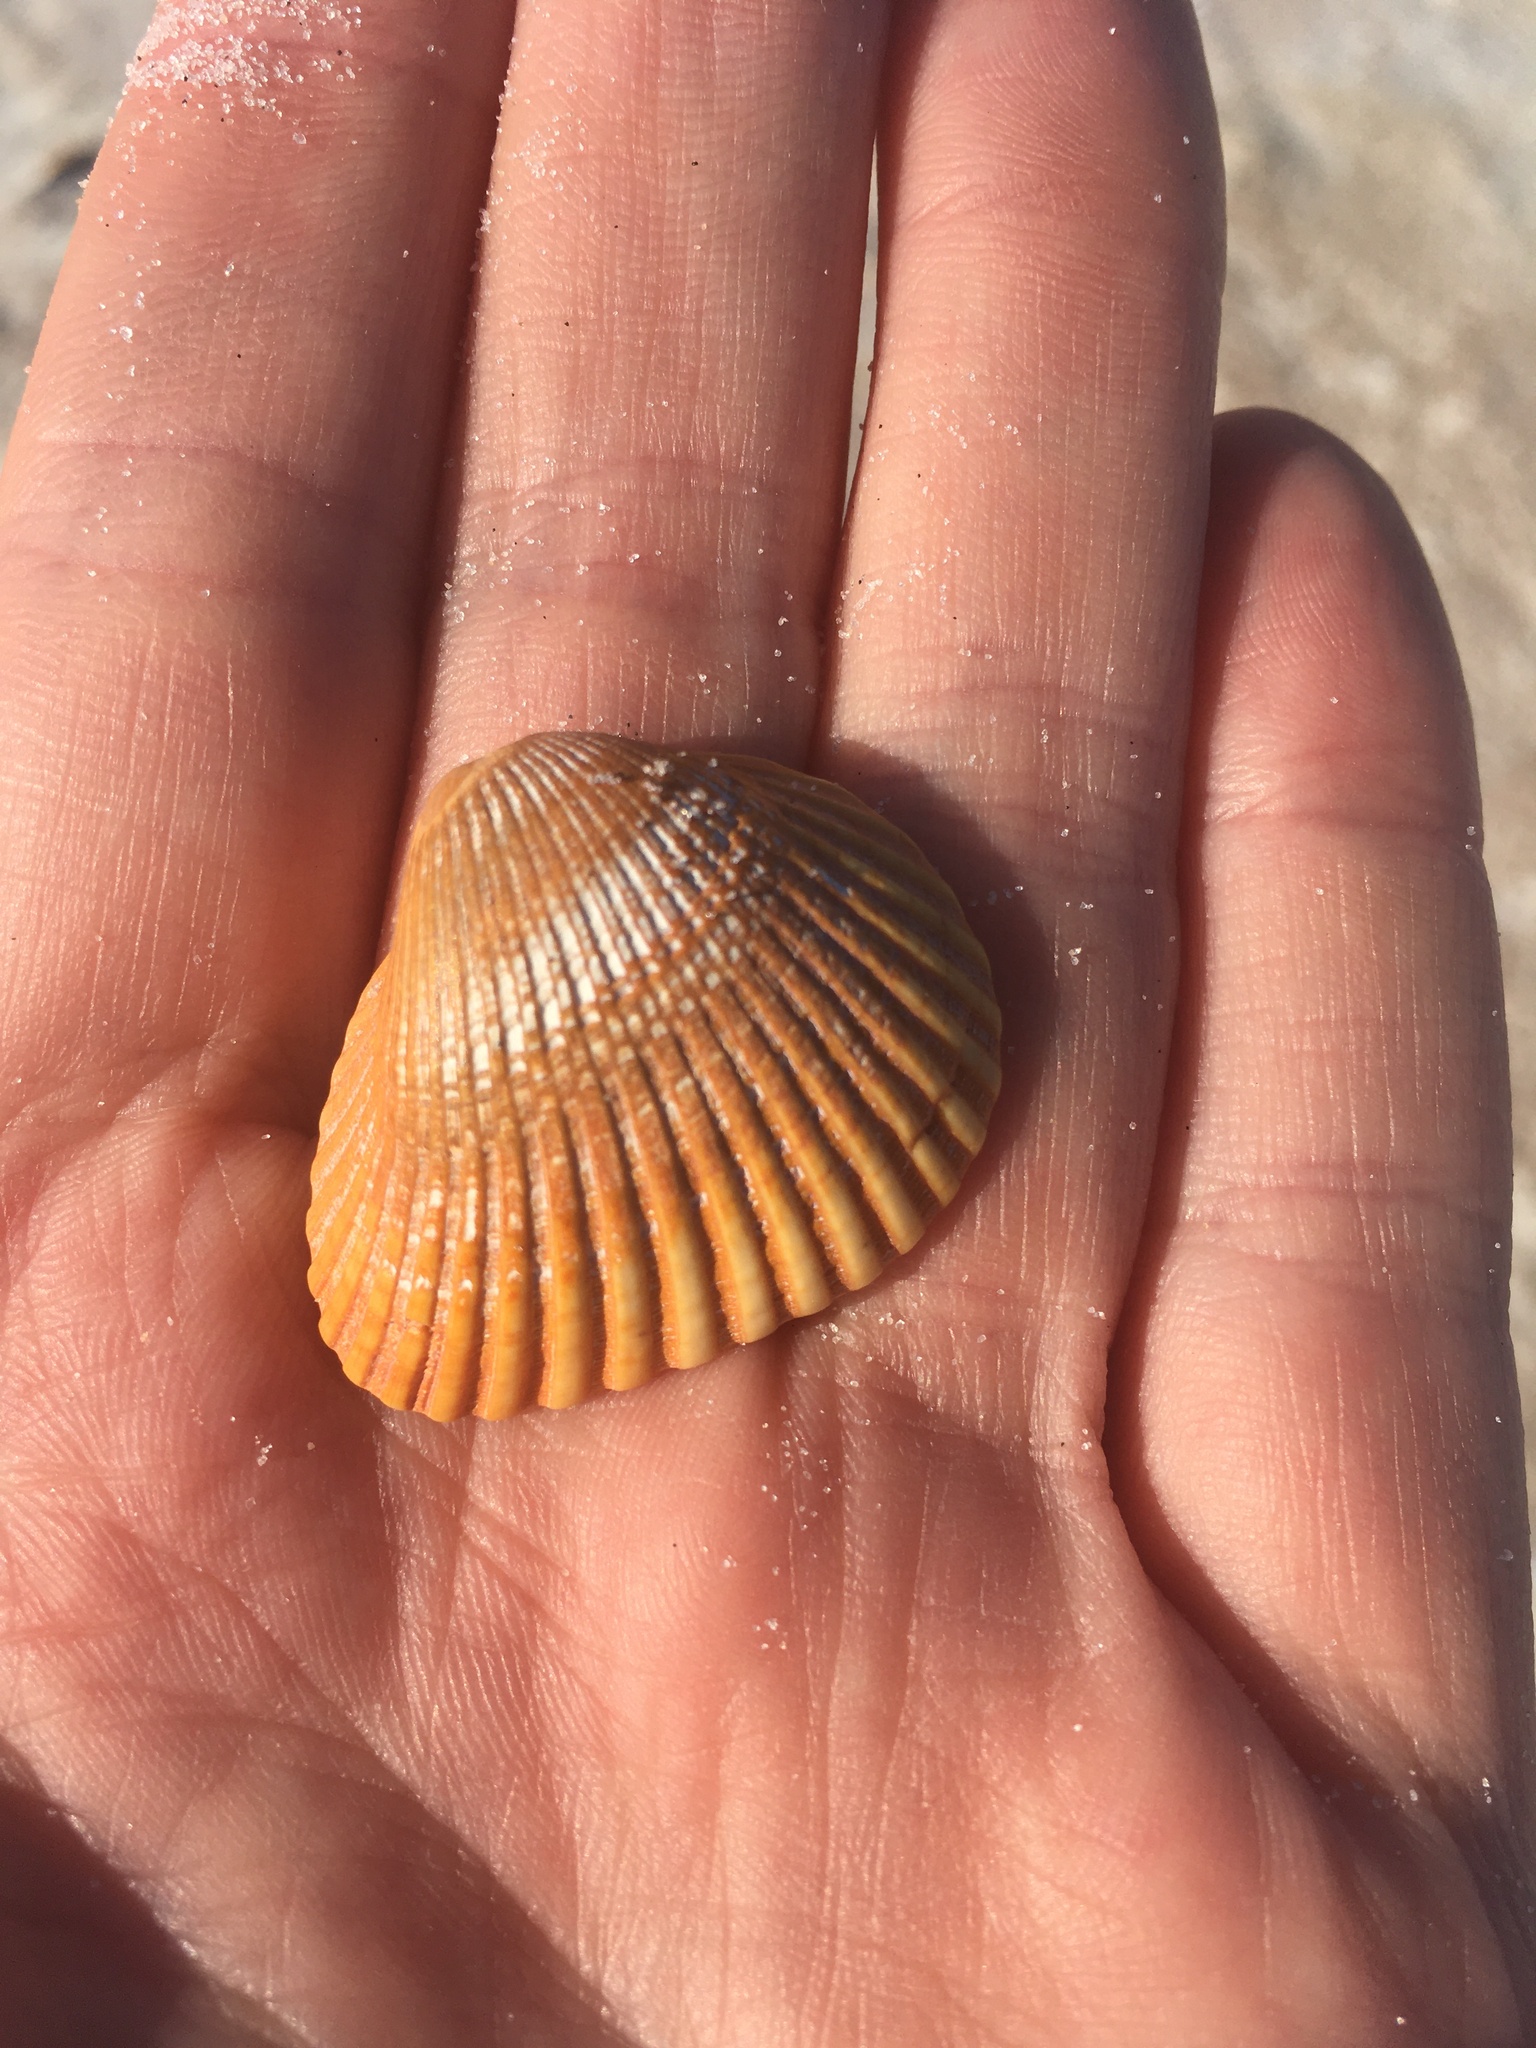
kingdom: Animalia
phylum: Mollusca
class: Bivalvia
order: Arcida
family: Noetiidae
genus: Noetia
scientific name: Noetia ponderosa
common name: Ponderous ark
